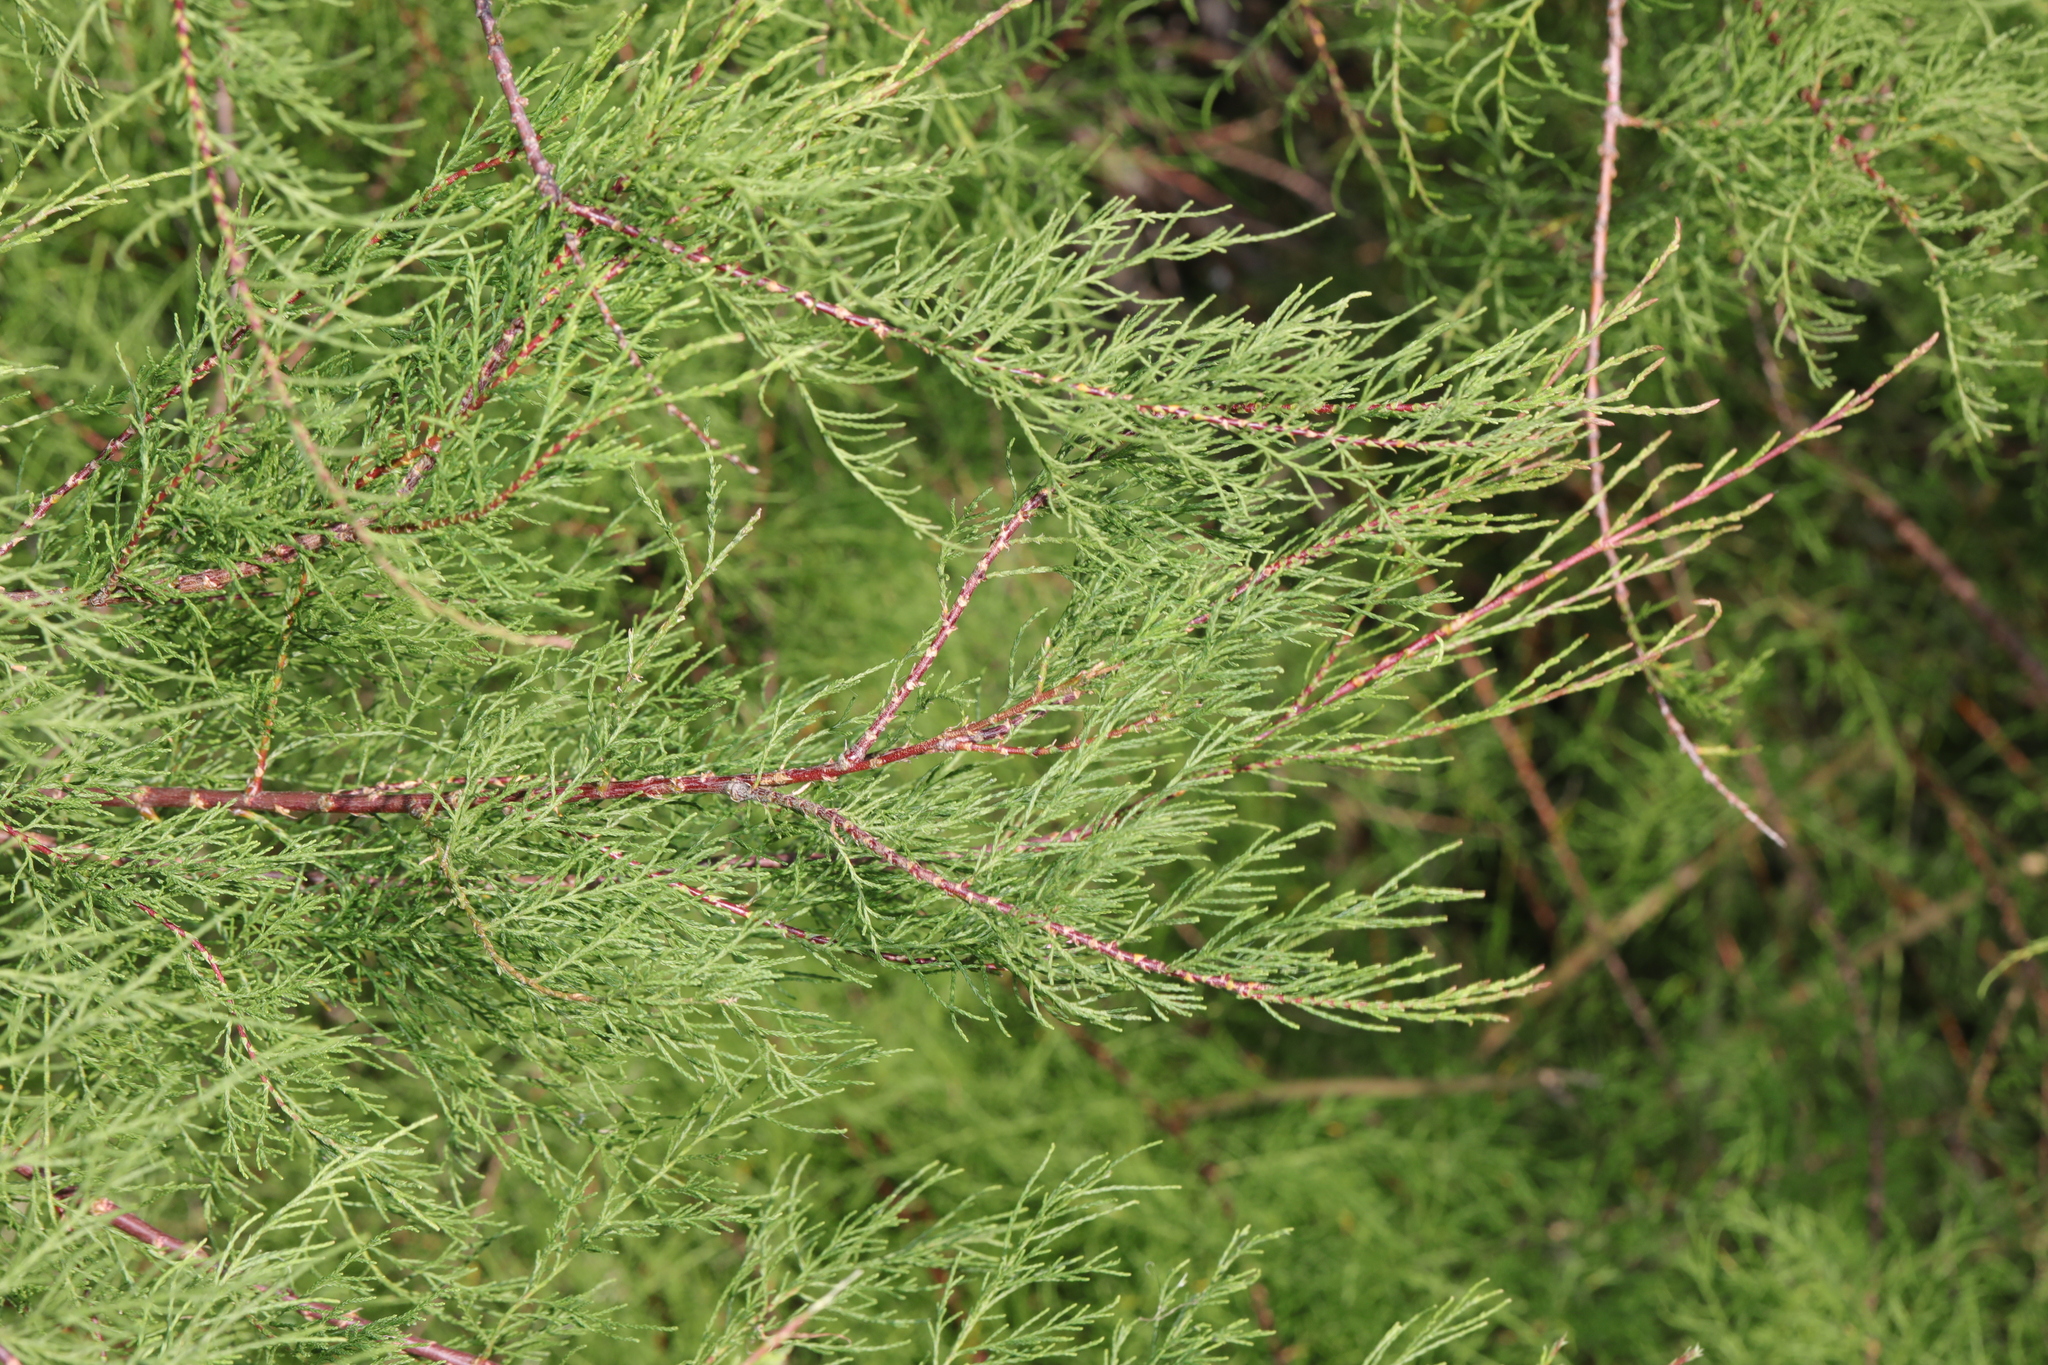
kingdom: Plantae
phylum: Tracheophyta
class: Magnoliopsida
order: Caryophyllales
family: Tamaricaceae
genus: Tamarix
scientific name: Tamarix gallica
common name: Tamarisk
